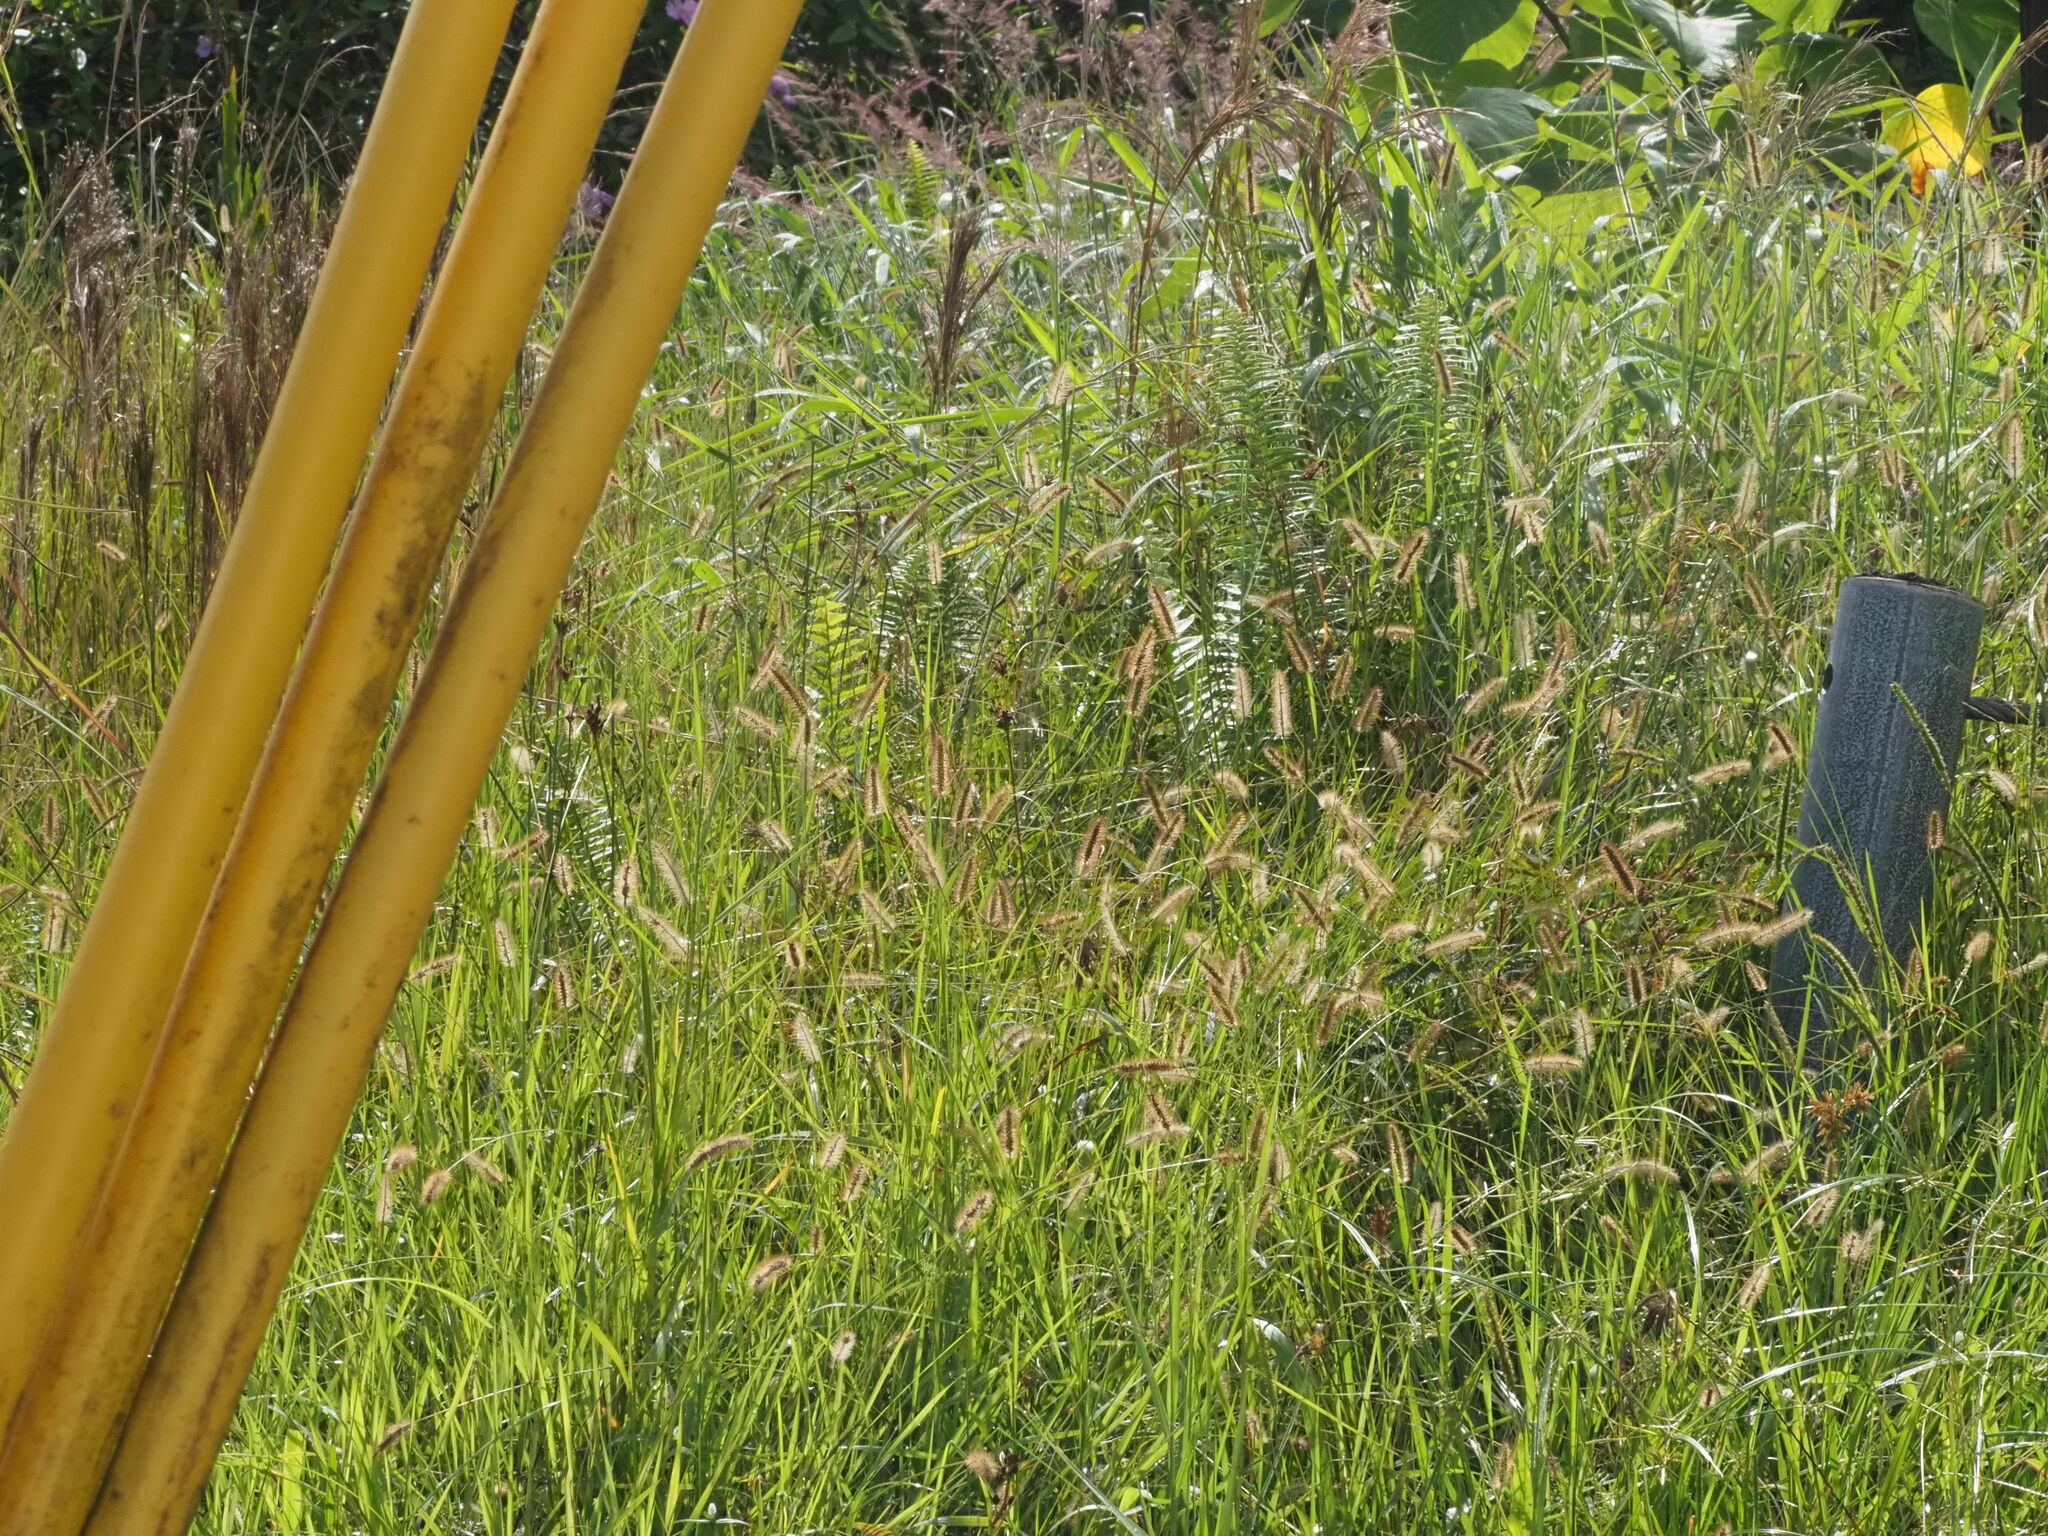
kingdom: Plantae
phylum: Tracheophyta
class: Liliopsida
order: Poales
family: Poaceae
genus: Setaria
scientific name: Setaria parviflora
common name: Knotroot bristle-grass
